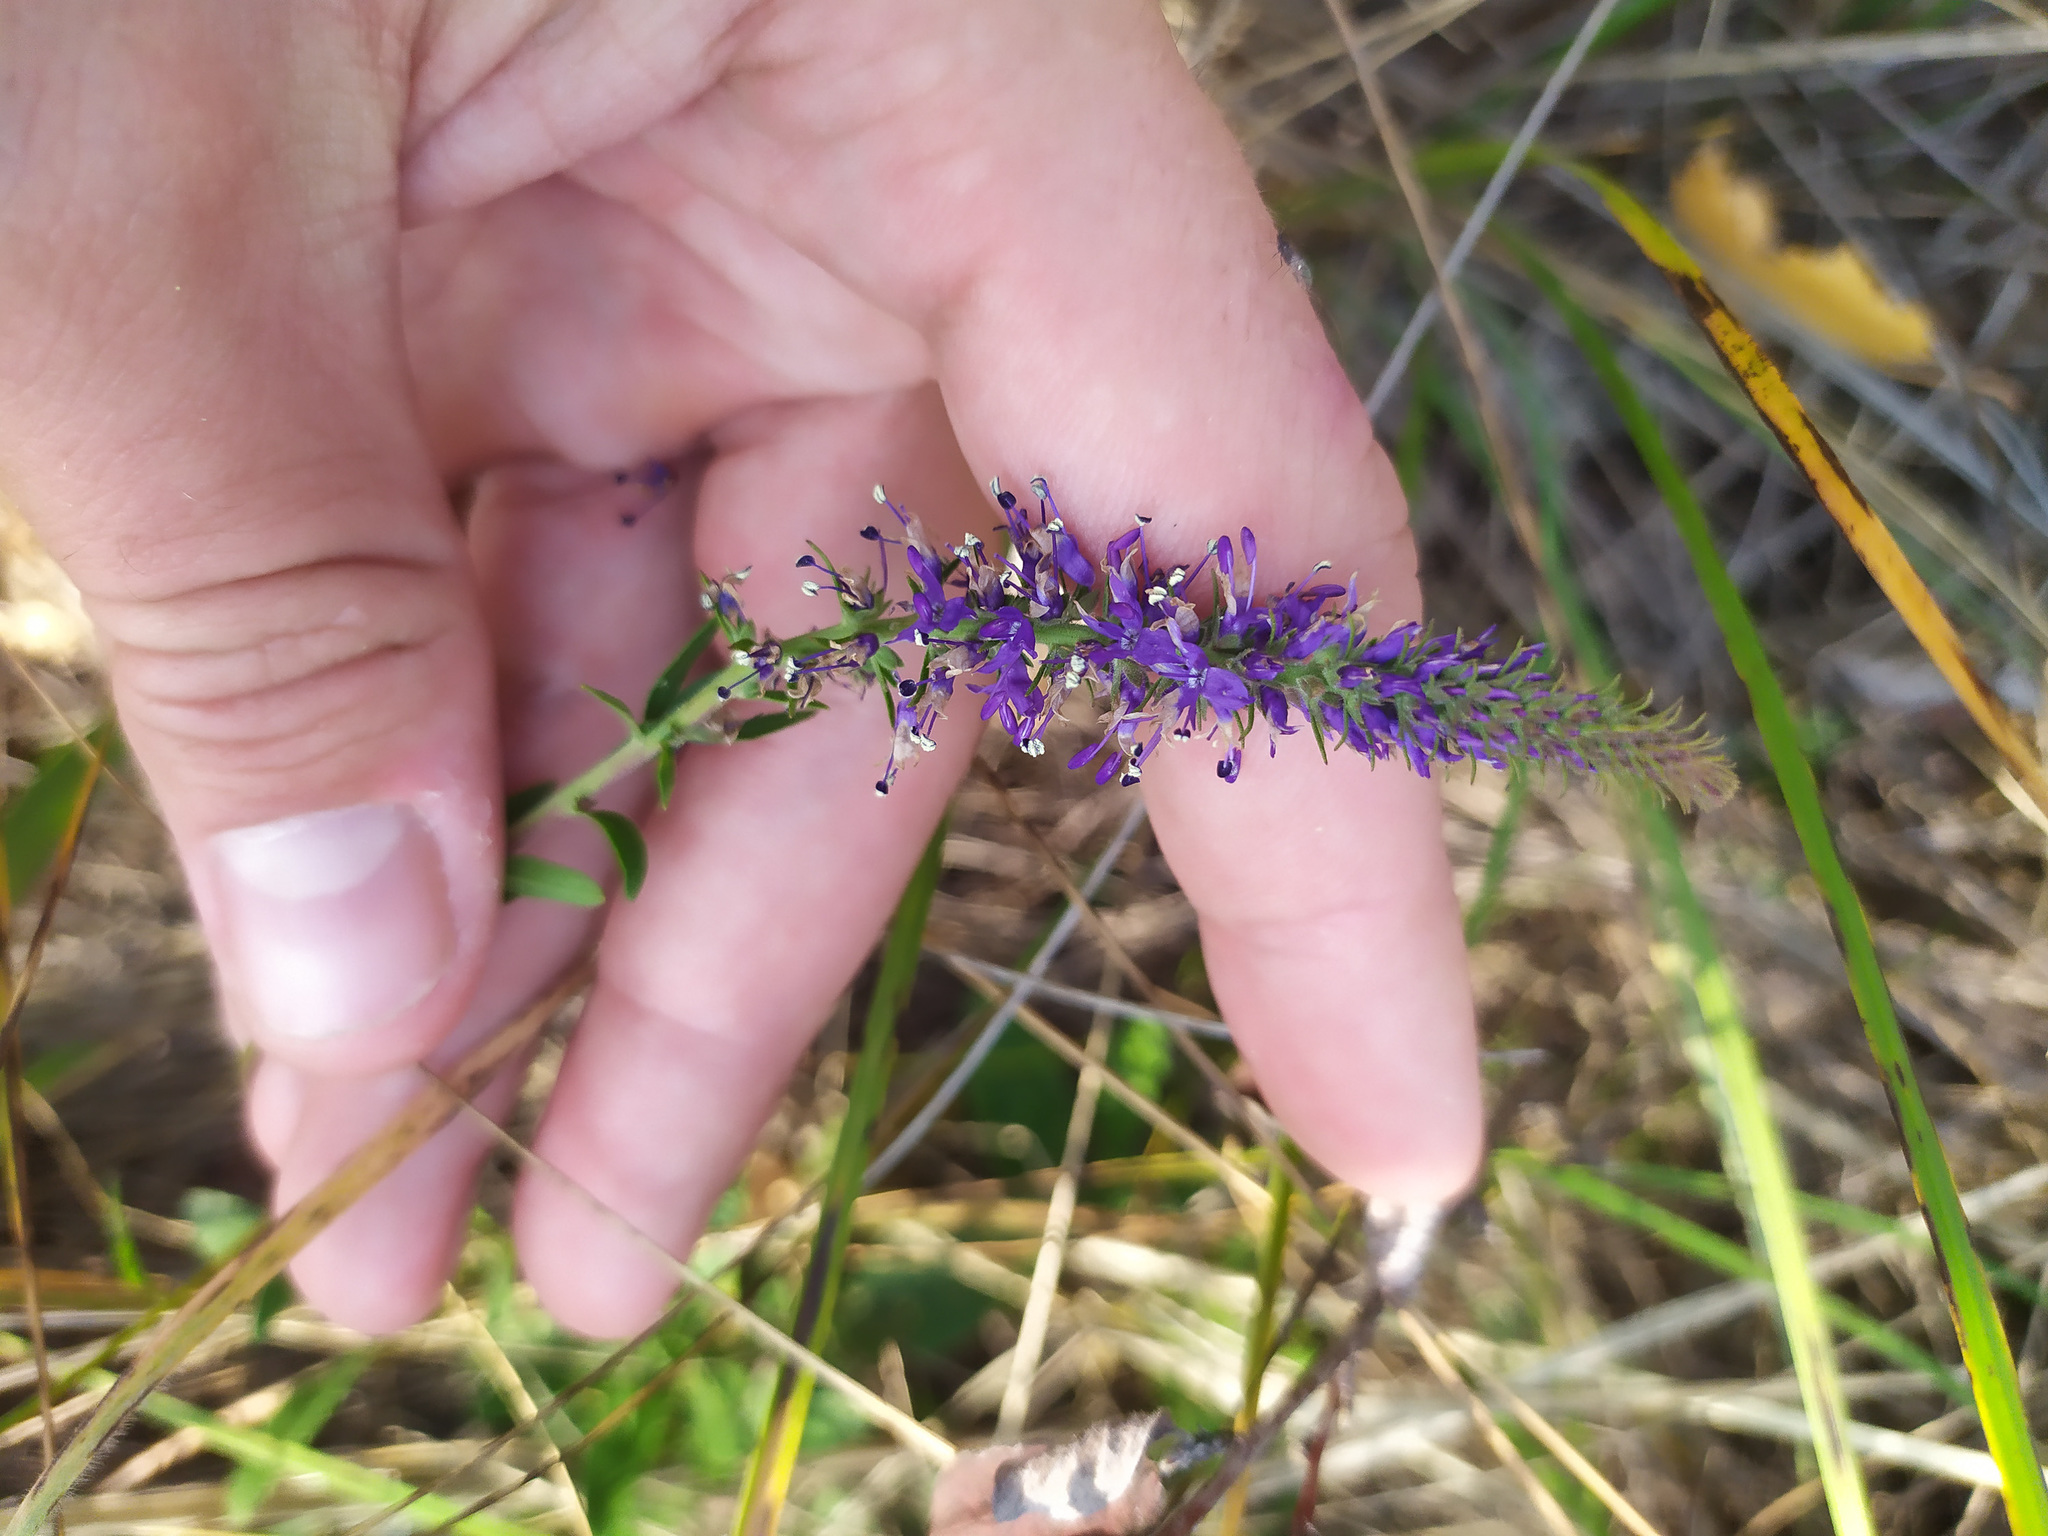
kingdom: Plantae
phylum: Tracheophyta
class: Magnoliopsida
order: Lamiales
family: Plantaginaceae
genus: Veronica
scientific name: Veronica spicata
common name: Spiked speedwell
